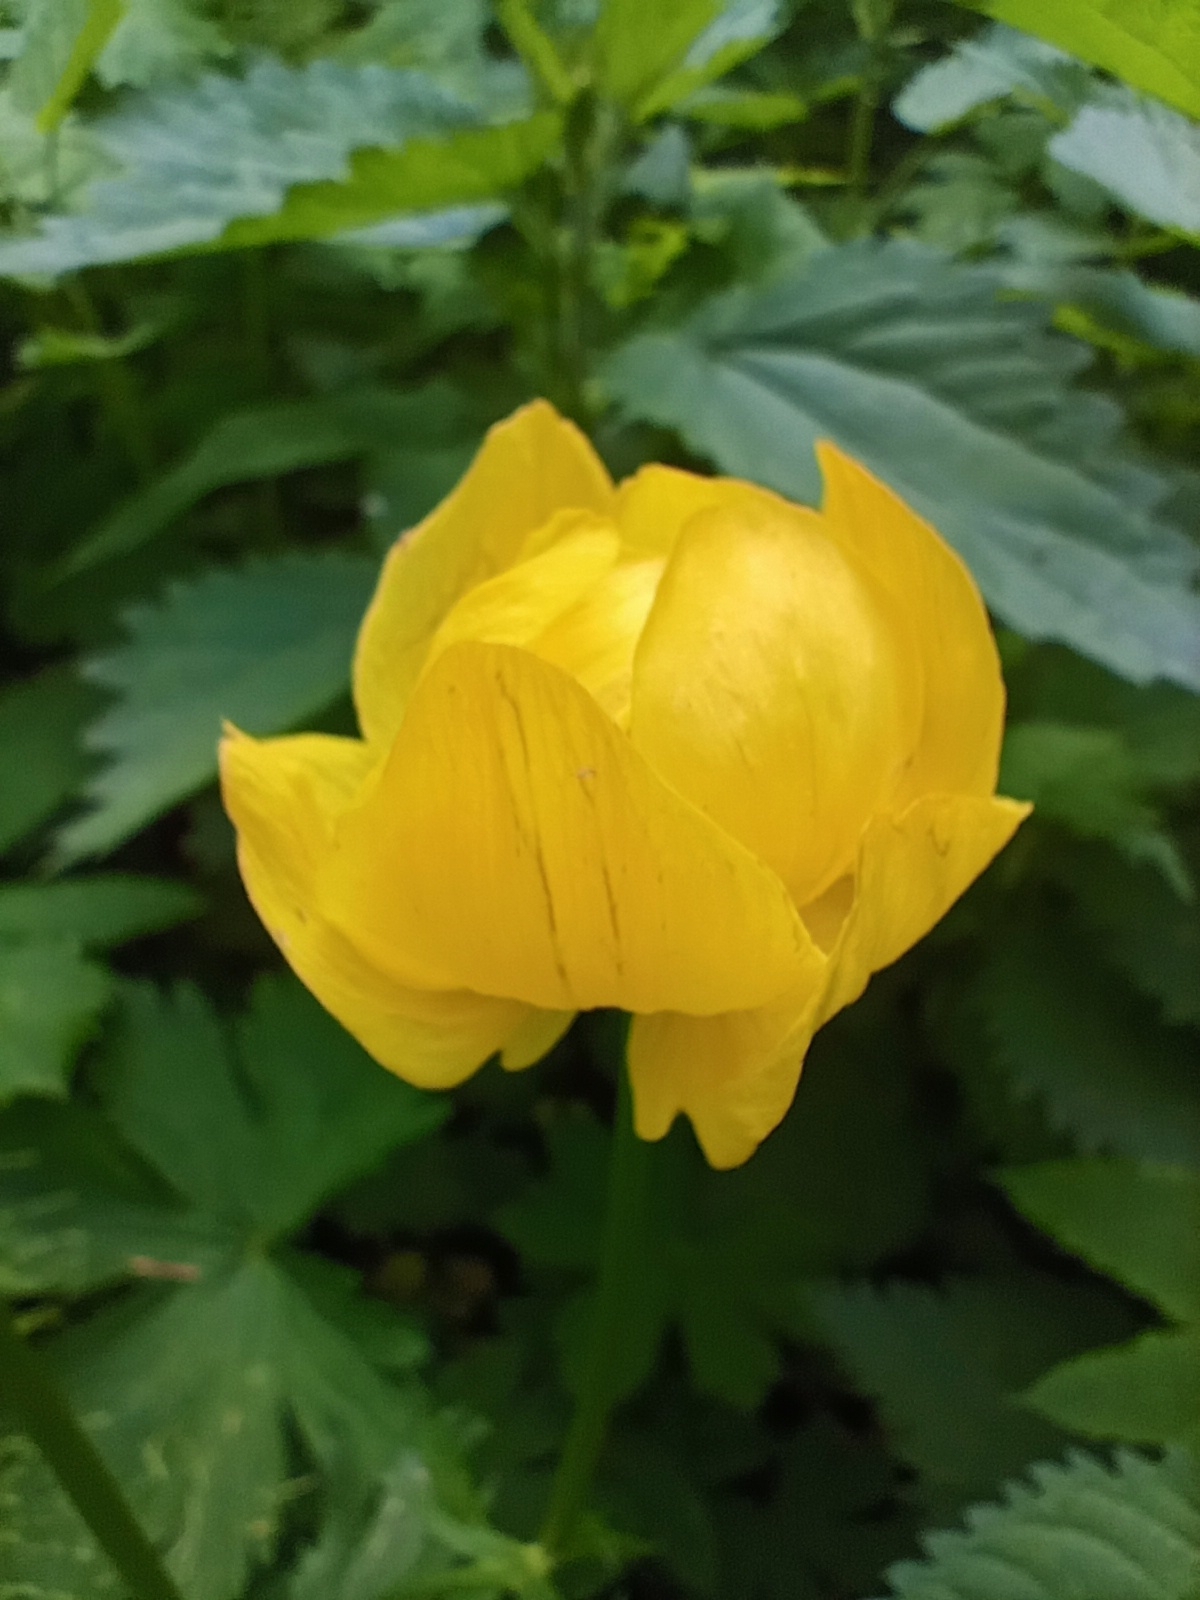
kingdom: Plantae
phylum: Tracheophyta
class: Magnoliopsida
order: Ranunculales
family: Ranunculaceae
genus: Trollius
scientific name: Trollius europaeus
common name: European globeflower
